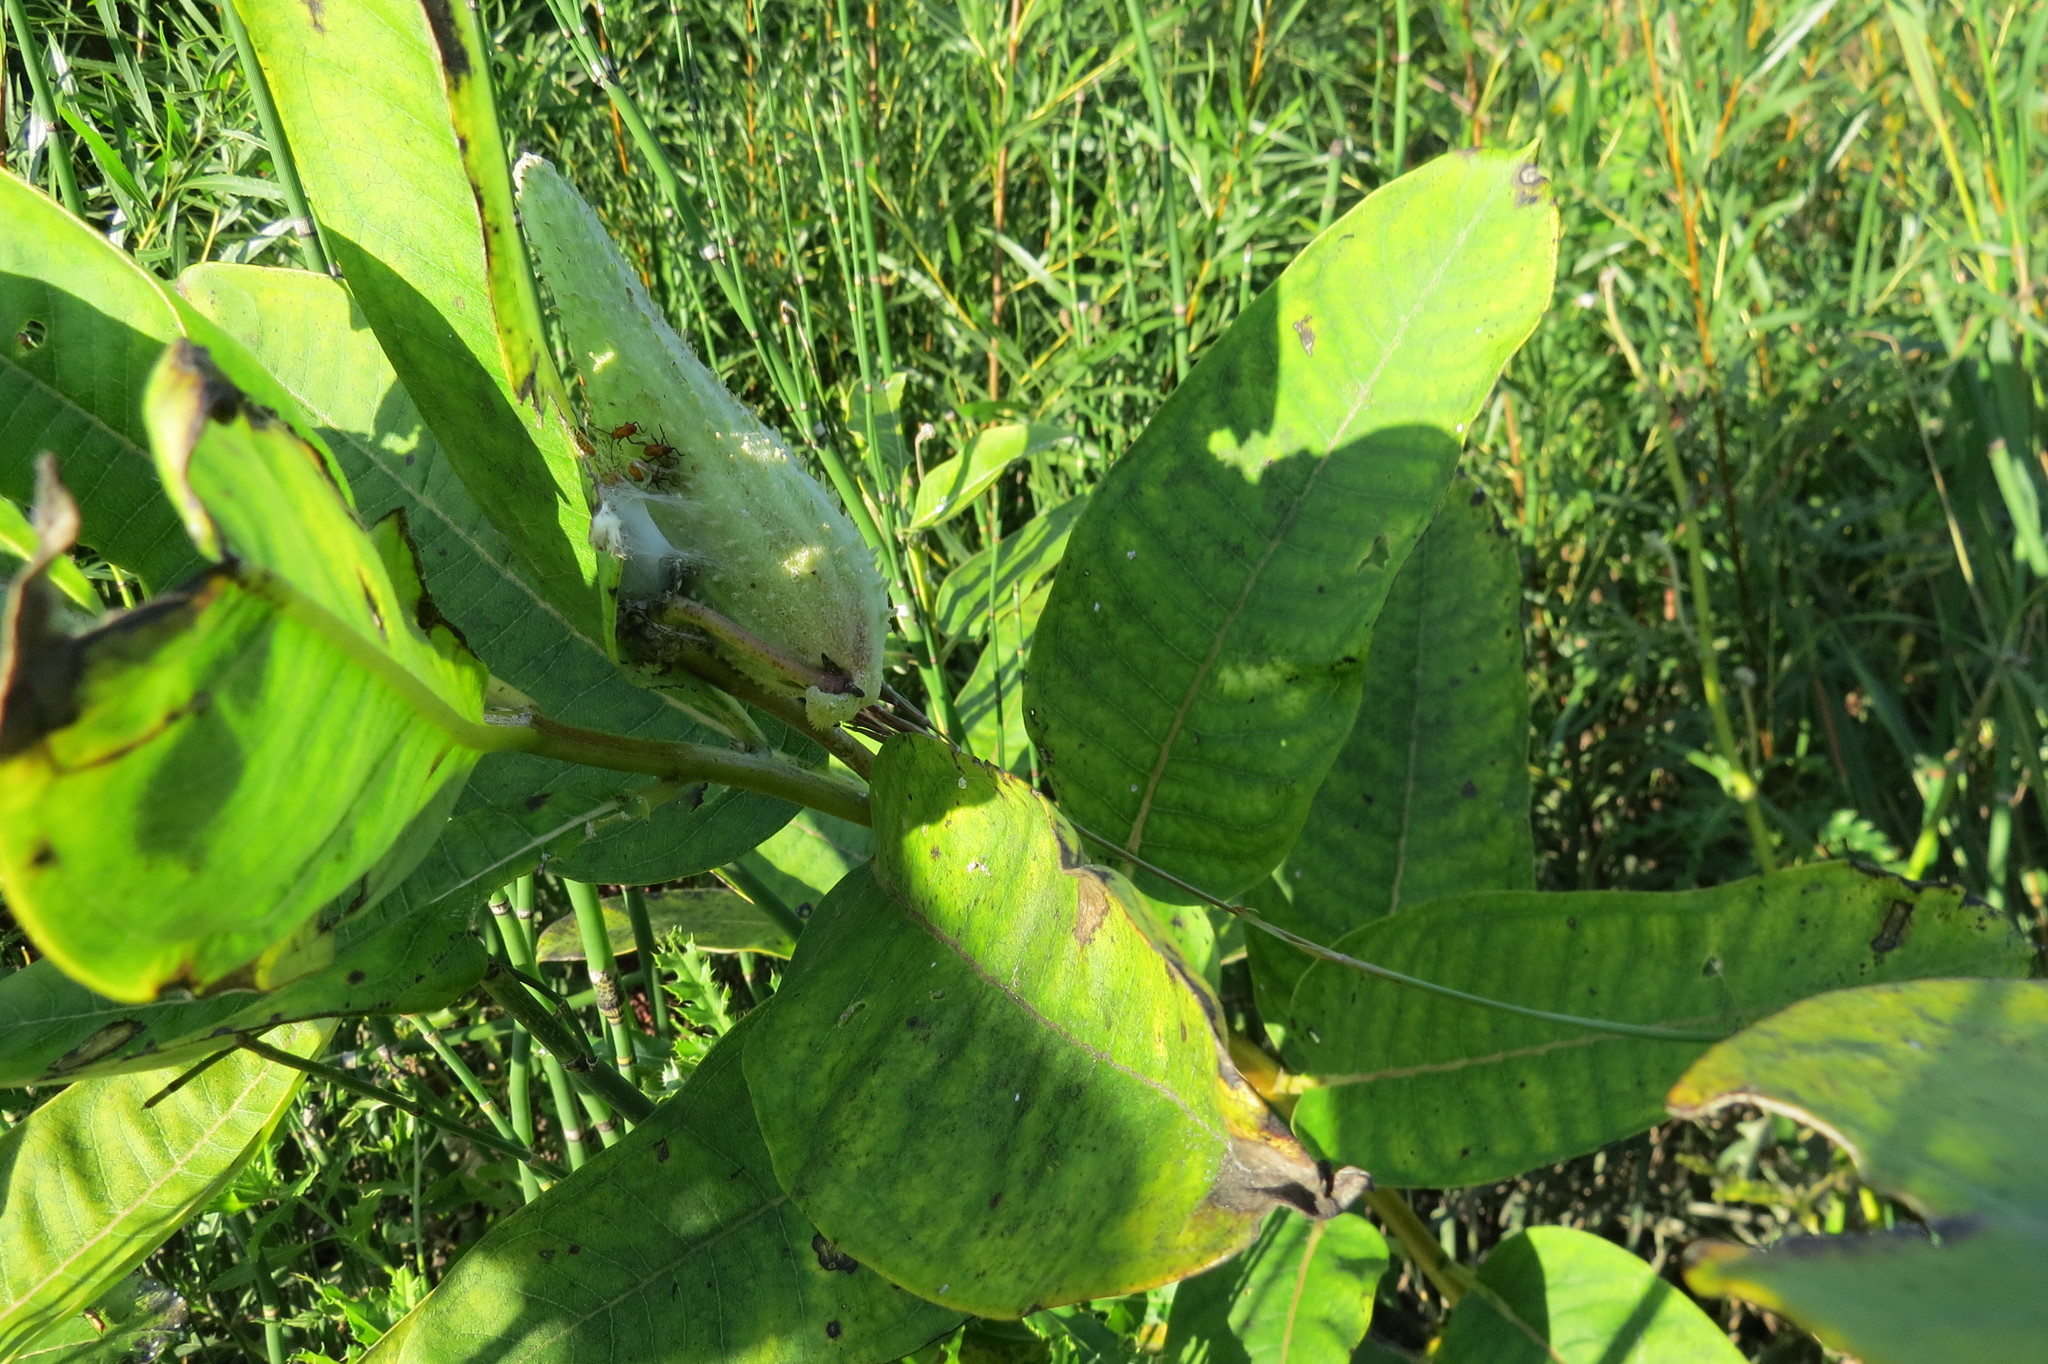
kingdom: Plantae
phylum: Tracheophyta
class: Magnoliopsida
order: Gentianales
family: Apocynaceae
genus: Asclepias
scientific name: Asclepias syriaca
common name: Common milkweed
